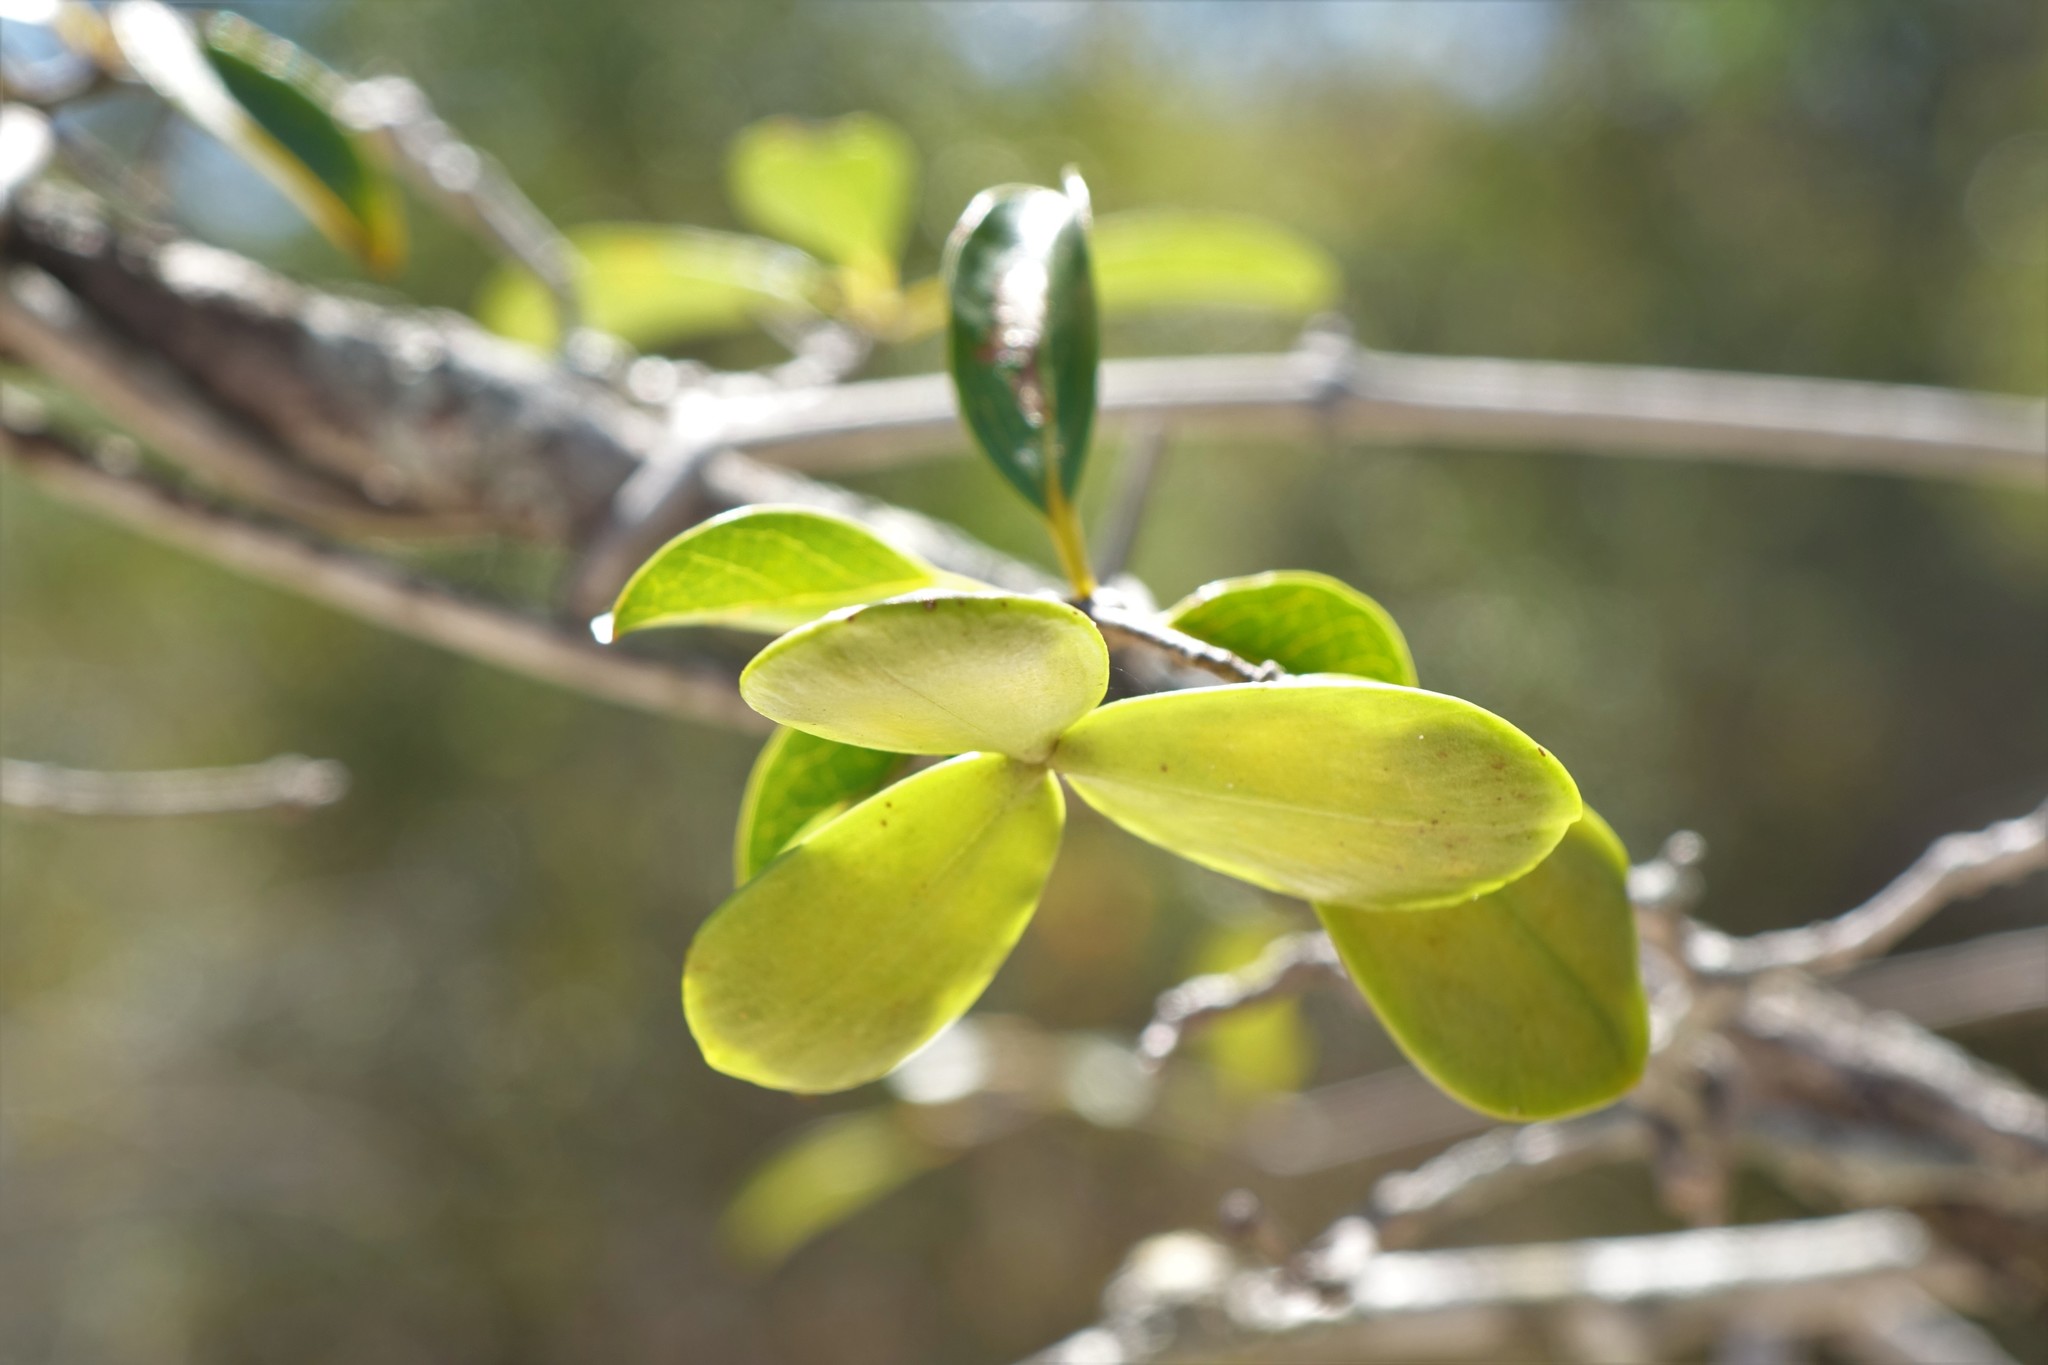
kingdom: Plantae
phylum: Tracheophyta
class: Magnoliopsida
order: Celastrales
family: Celastraceae
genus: Loeseneriella
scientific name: Loeseneriella urceolus
